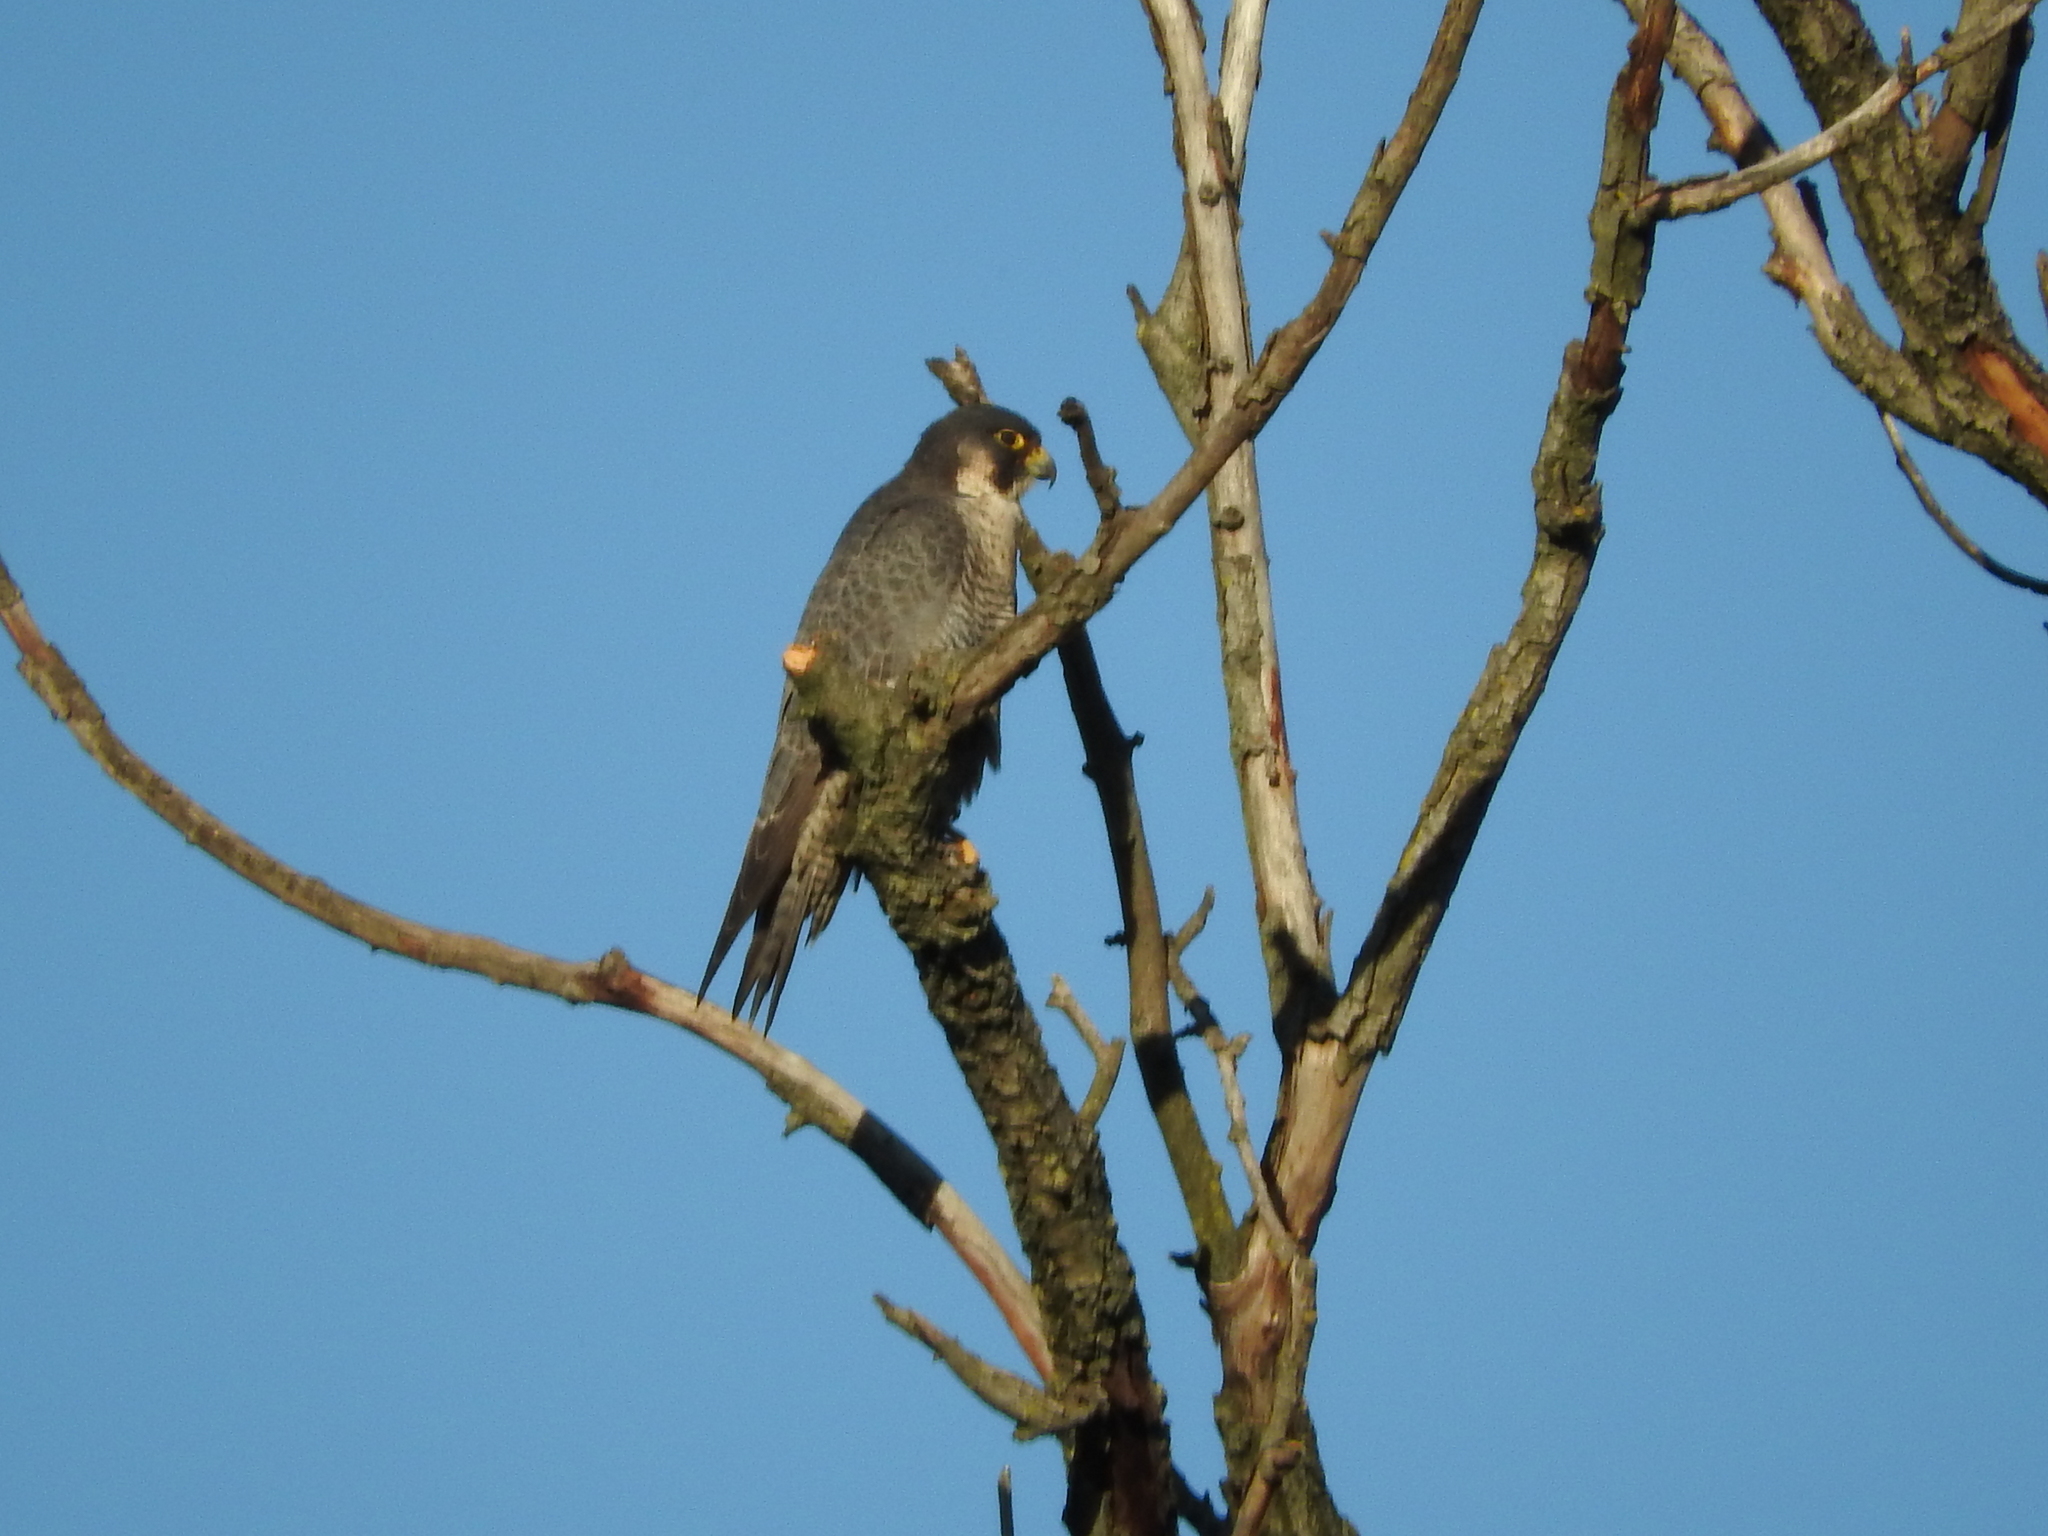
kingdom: Animalia
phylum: Chordata
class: Aves
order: Falconiformes
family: Falconidae
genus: Falco
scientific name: Falco peregrinus
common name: Peregrine falcon
